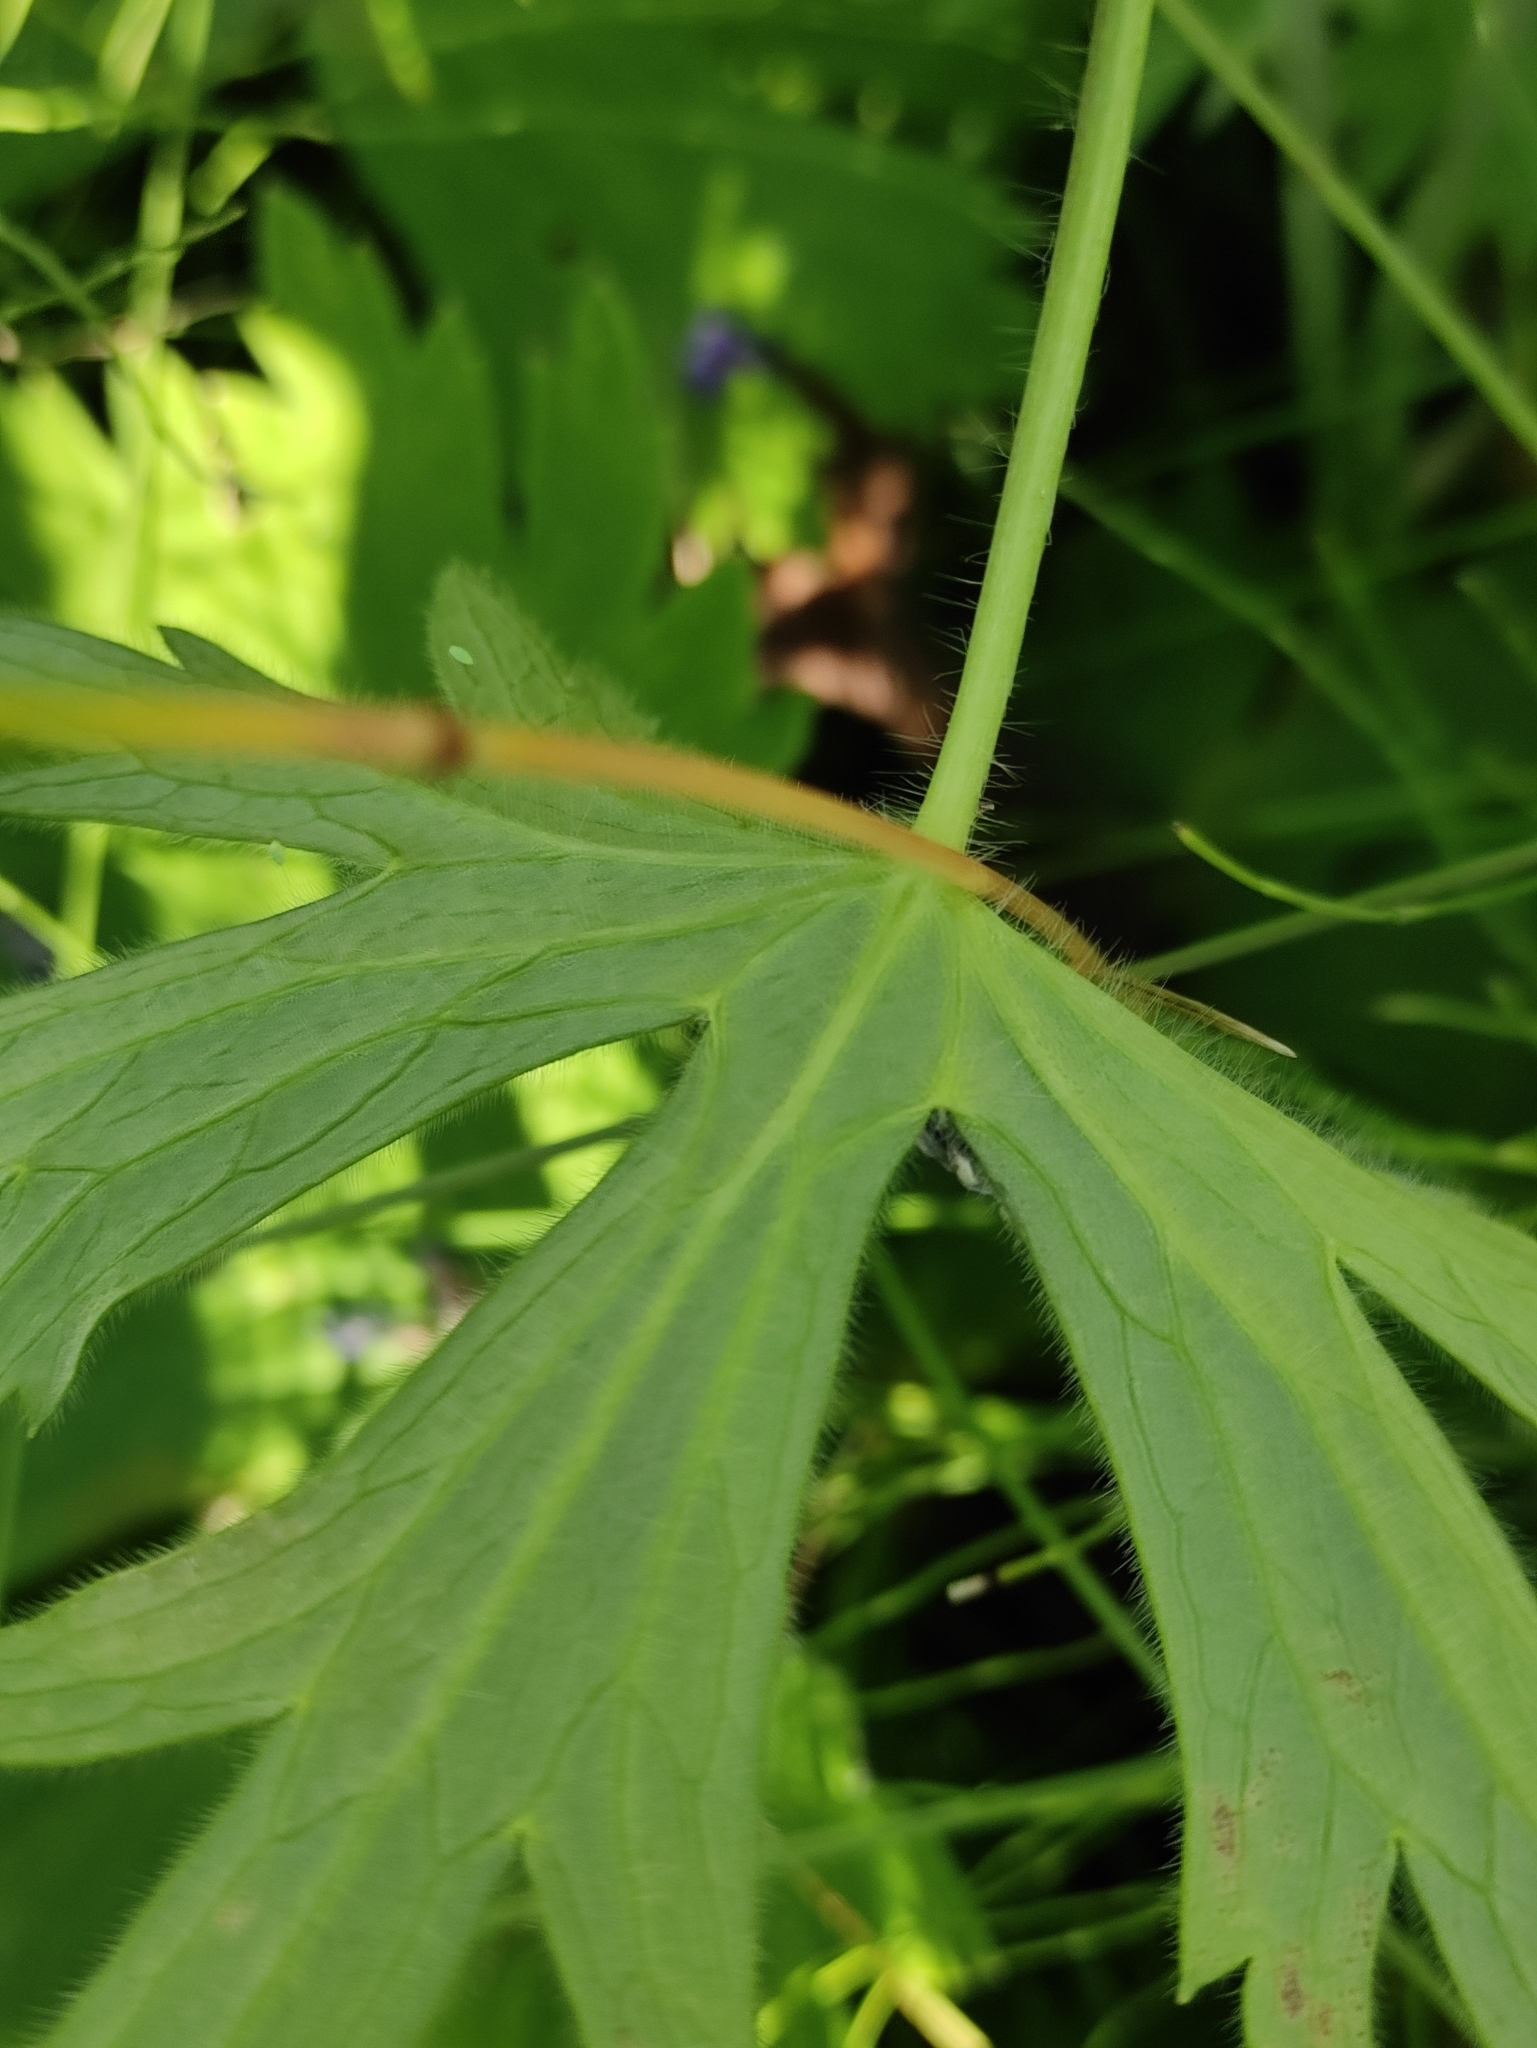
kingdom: Plantae
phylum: Tracheophyta
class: Magnoliopsida
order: Ranunculales
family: Ranunculaceae
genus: Delphinium
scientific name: Delphinium crassifolium
